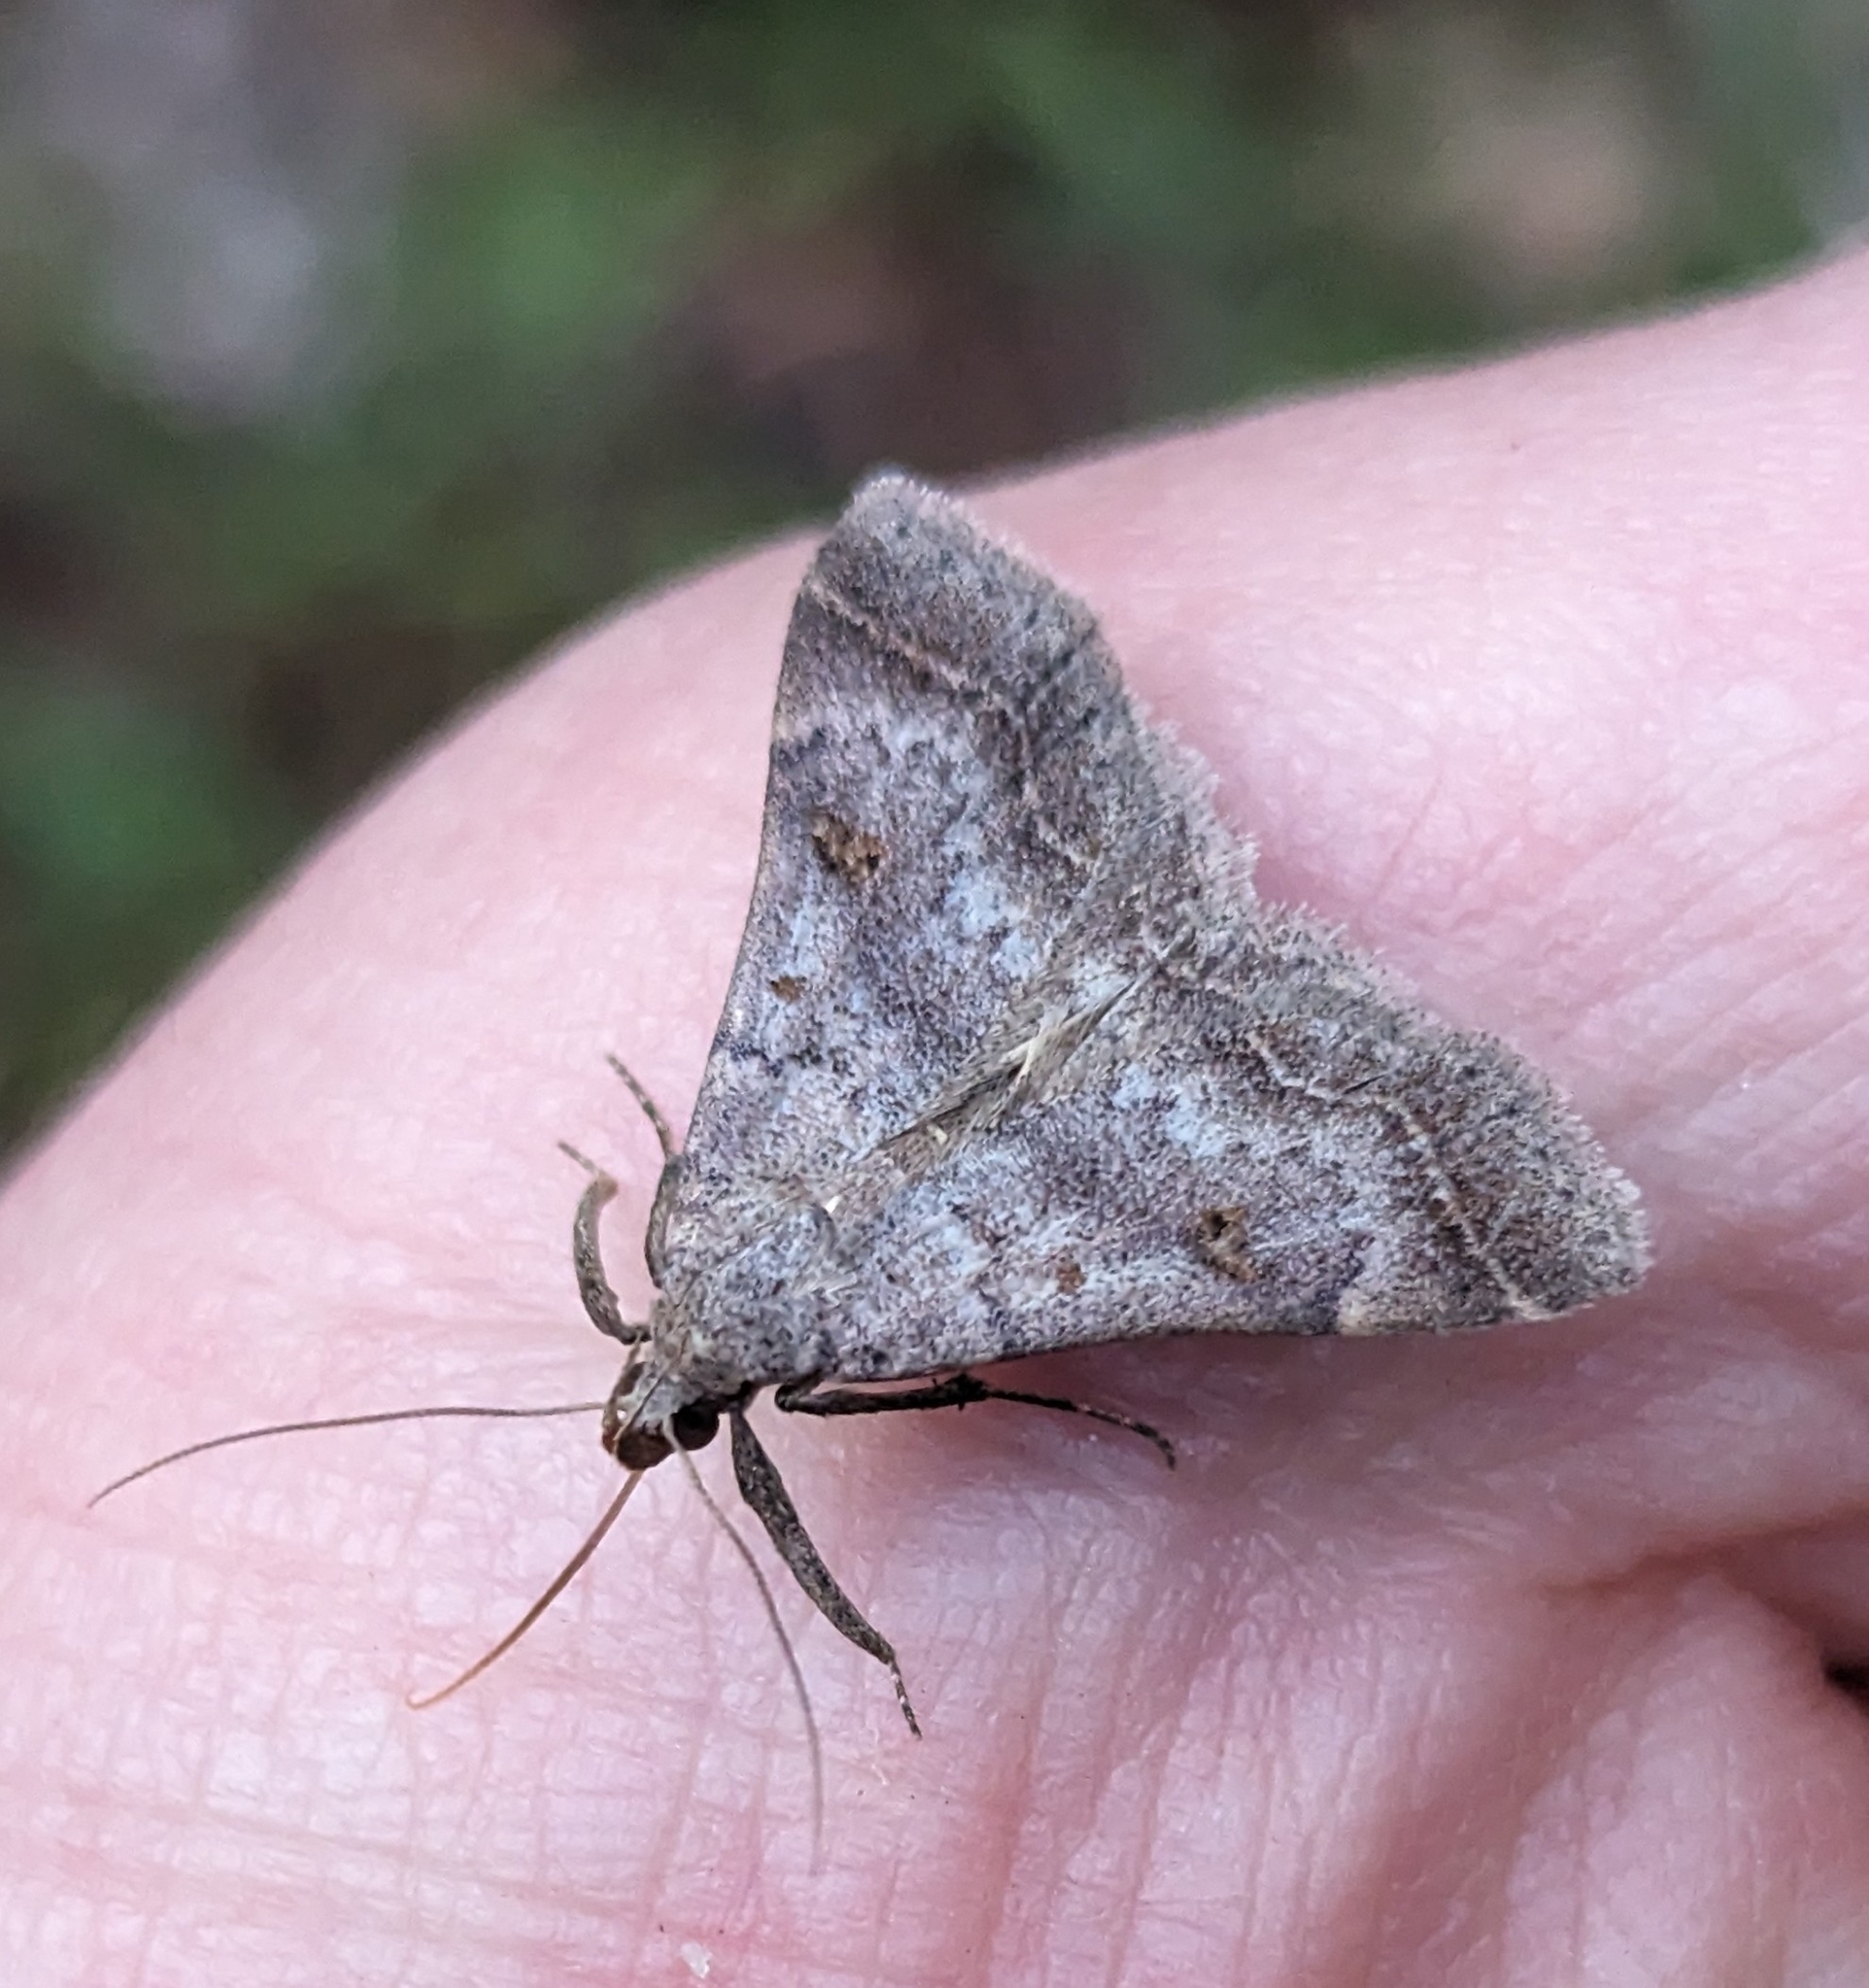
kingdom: Animalia
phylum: Arthropoda
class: Insecta
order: Lepidoptera
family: Erebidae
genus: Bleptina
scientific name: Bleptina caradrinalis
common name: Bent-winged owlet
